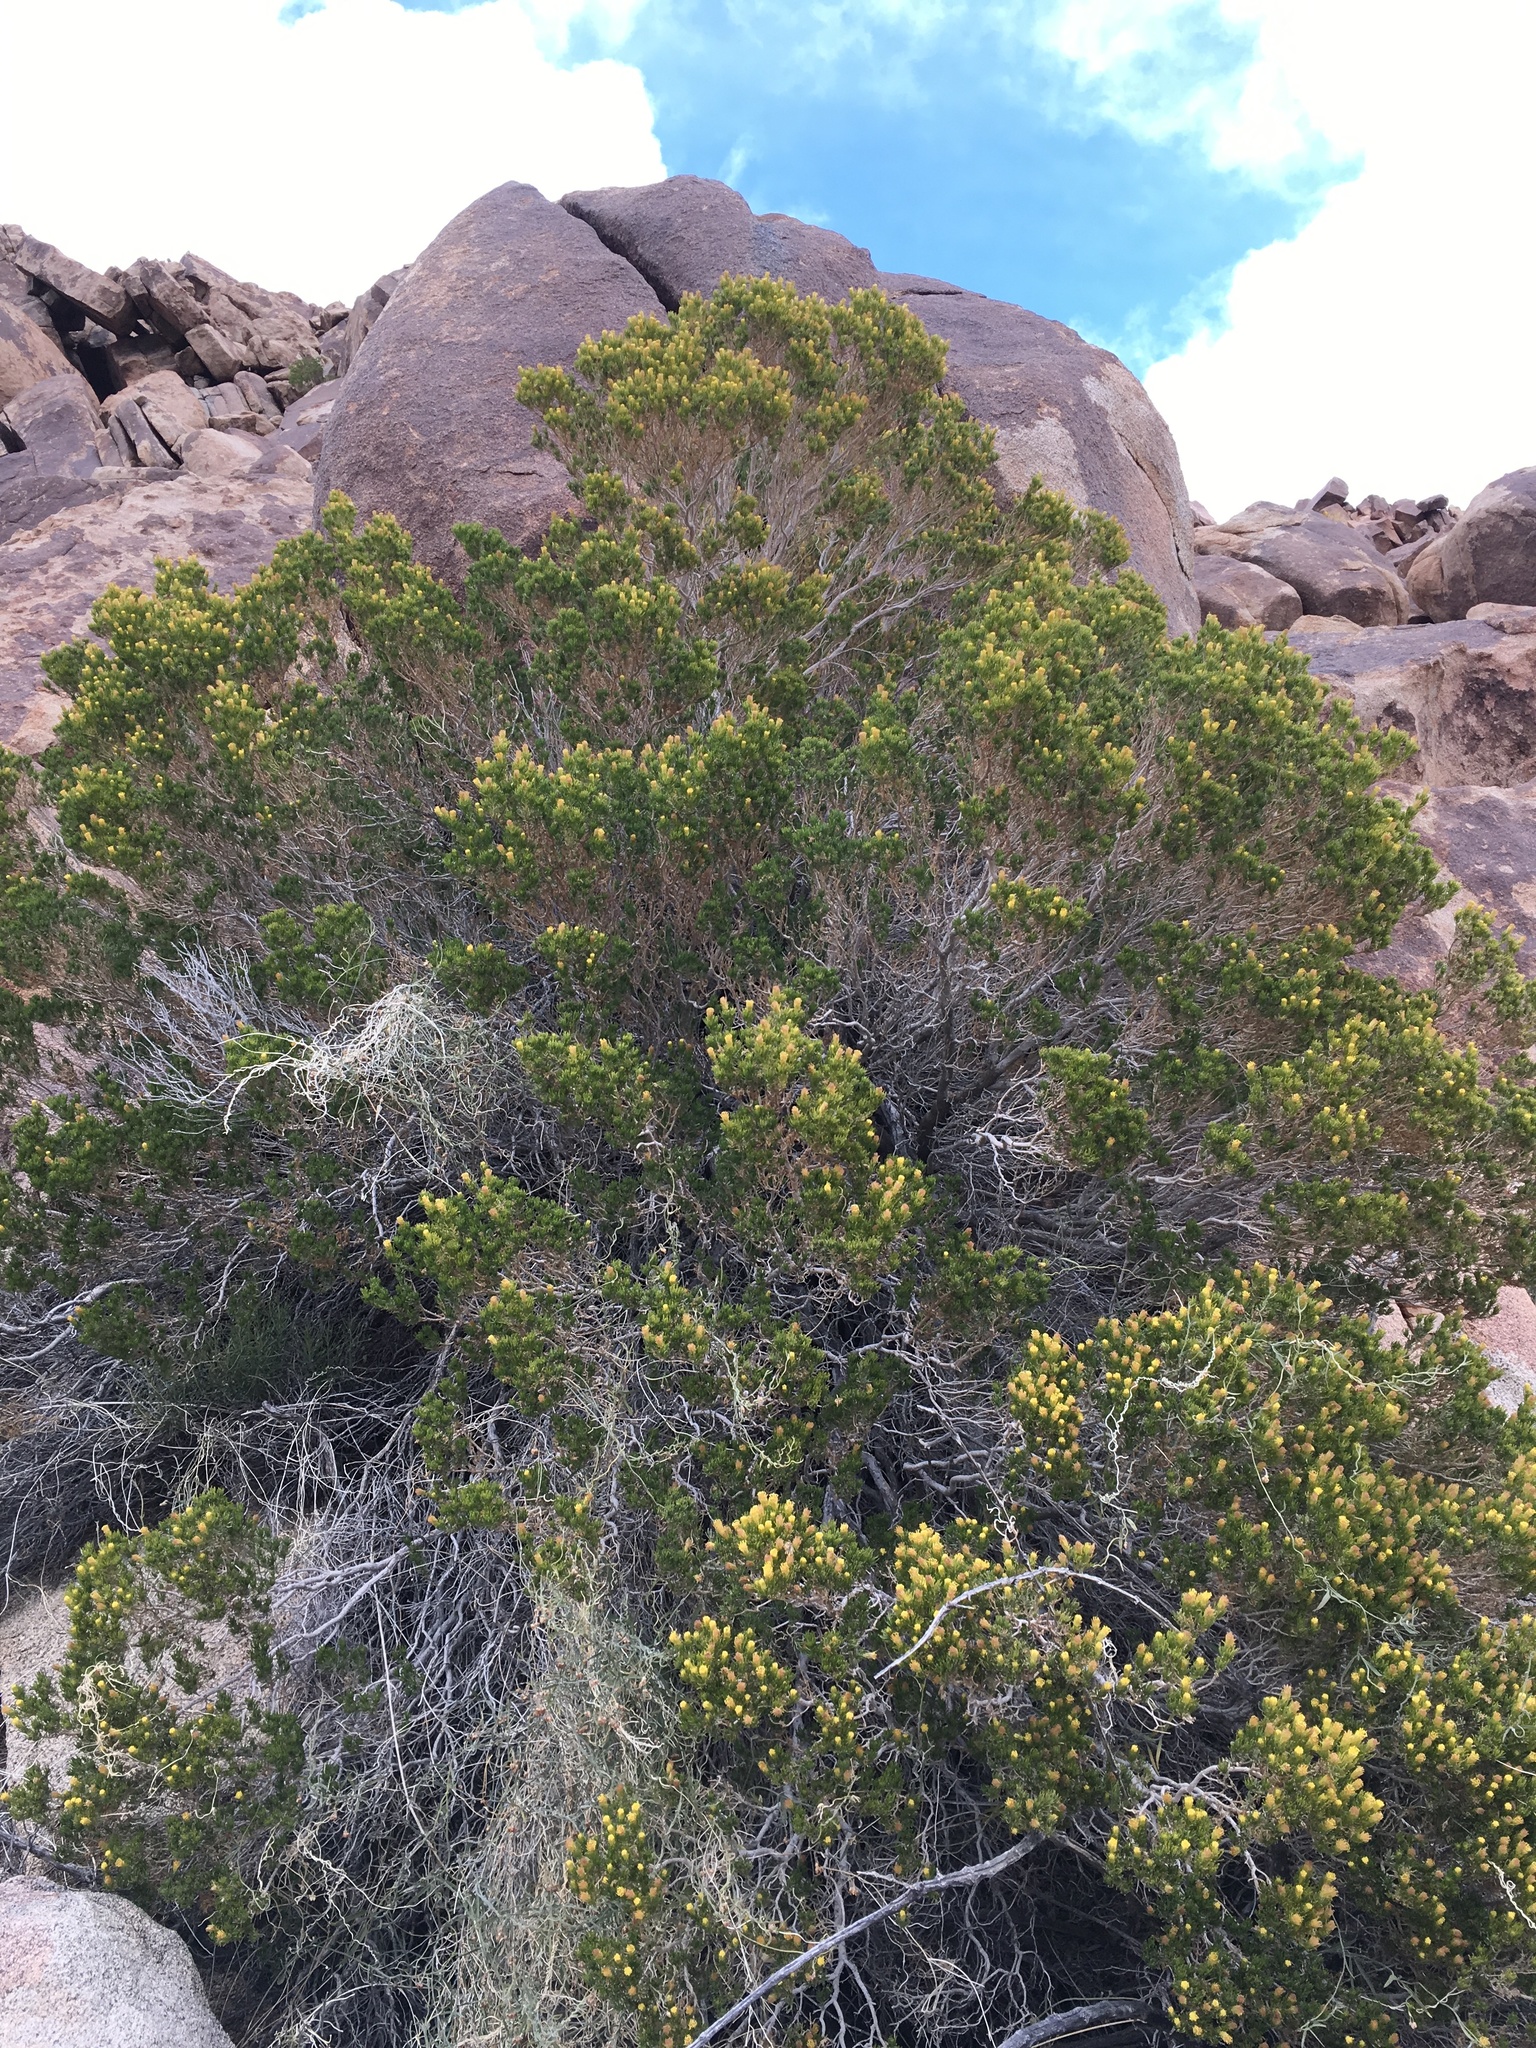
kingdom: Plantae
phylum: Tracheophyta
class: Magnoliopsida
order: Asterales
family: Asteraceae
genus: Peucephyllum
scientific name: Peucephyllum schottii
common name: Pygmy-cedar
